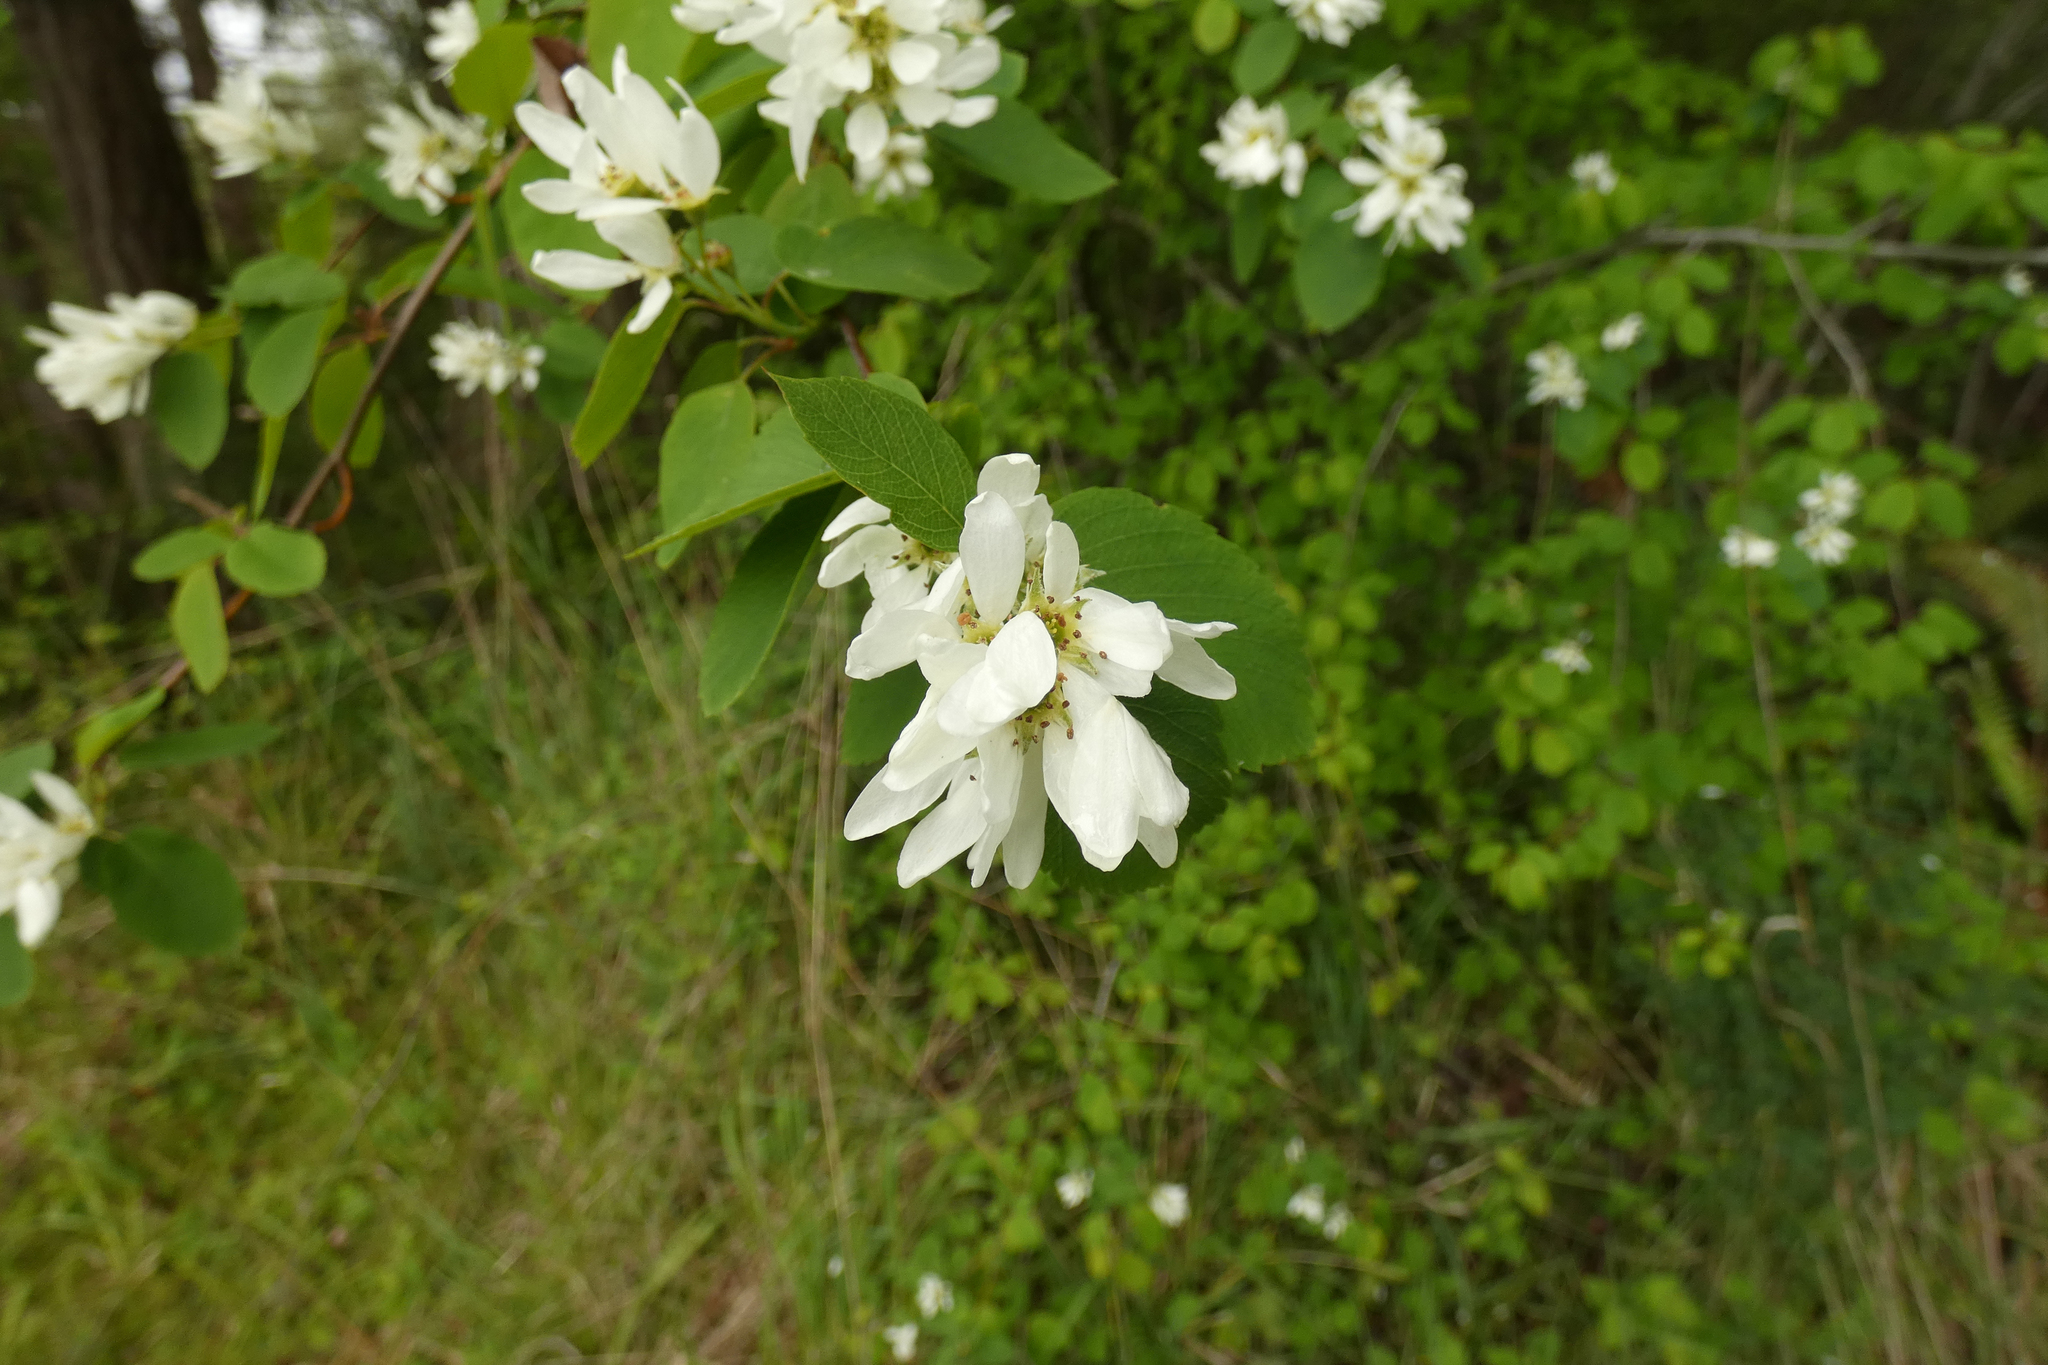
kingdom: Plantae
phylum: Tracheophyta
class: Magnoliopsida
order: Rosales
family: Rosaceae
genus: Amelanchier
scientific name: Amelanchier alnifolia
